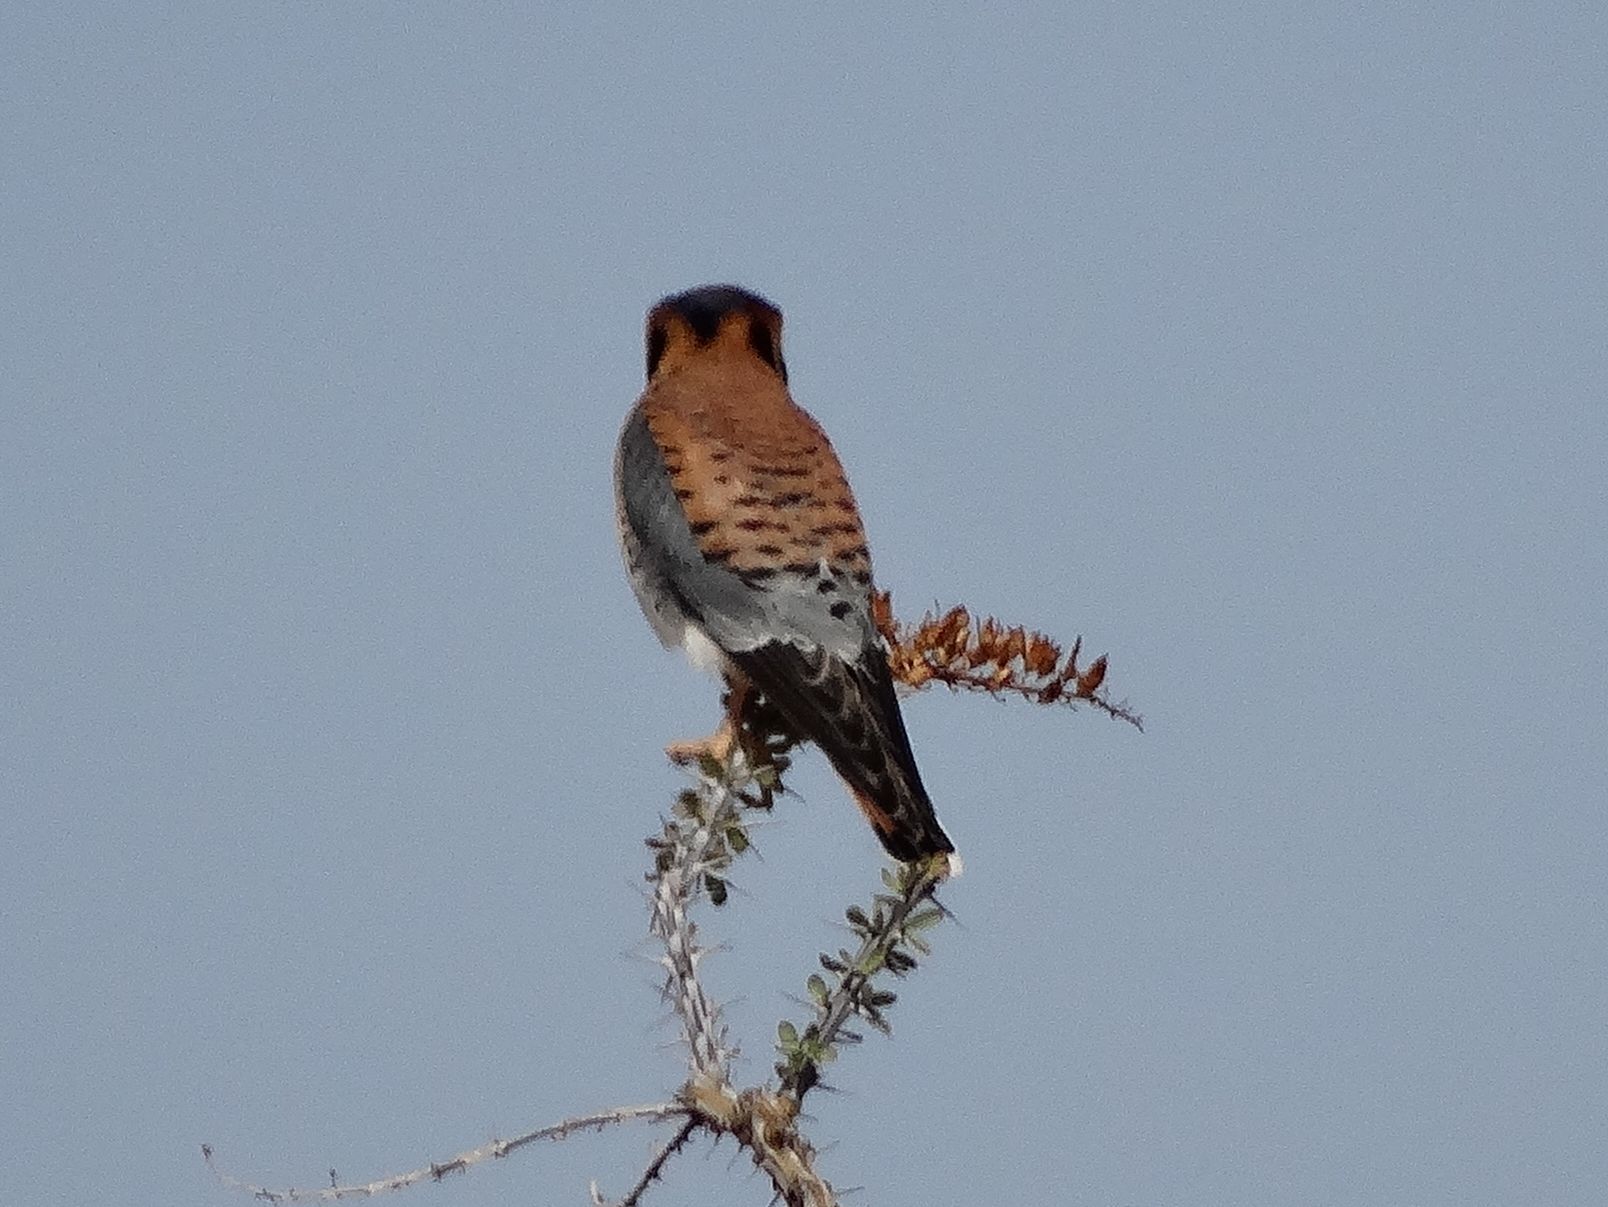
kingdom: Animalia
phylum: Chordata
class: Aves
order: Falconiformes
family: Falconidae
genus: Falco
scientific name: Falco sparverius
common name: American kestrel
